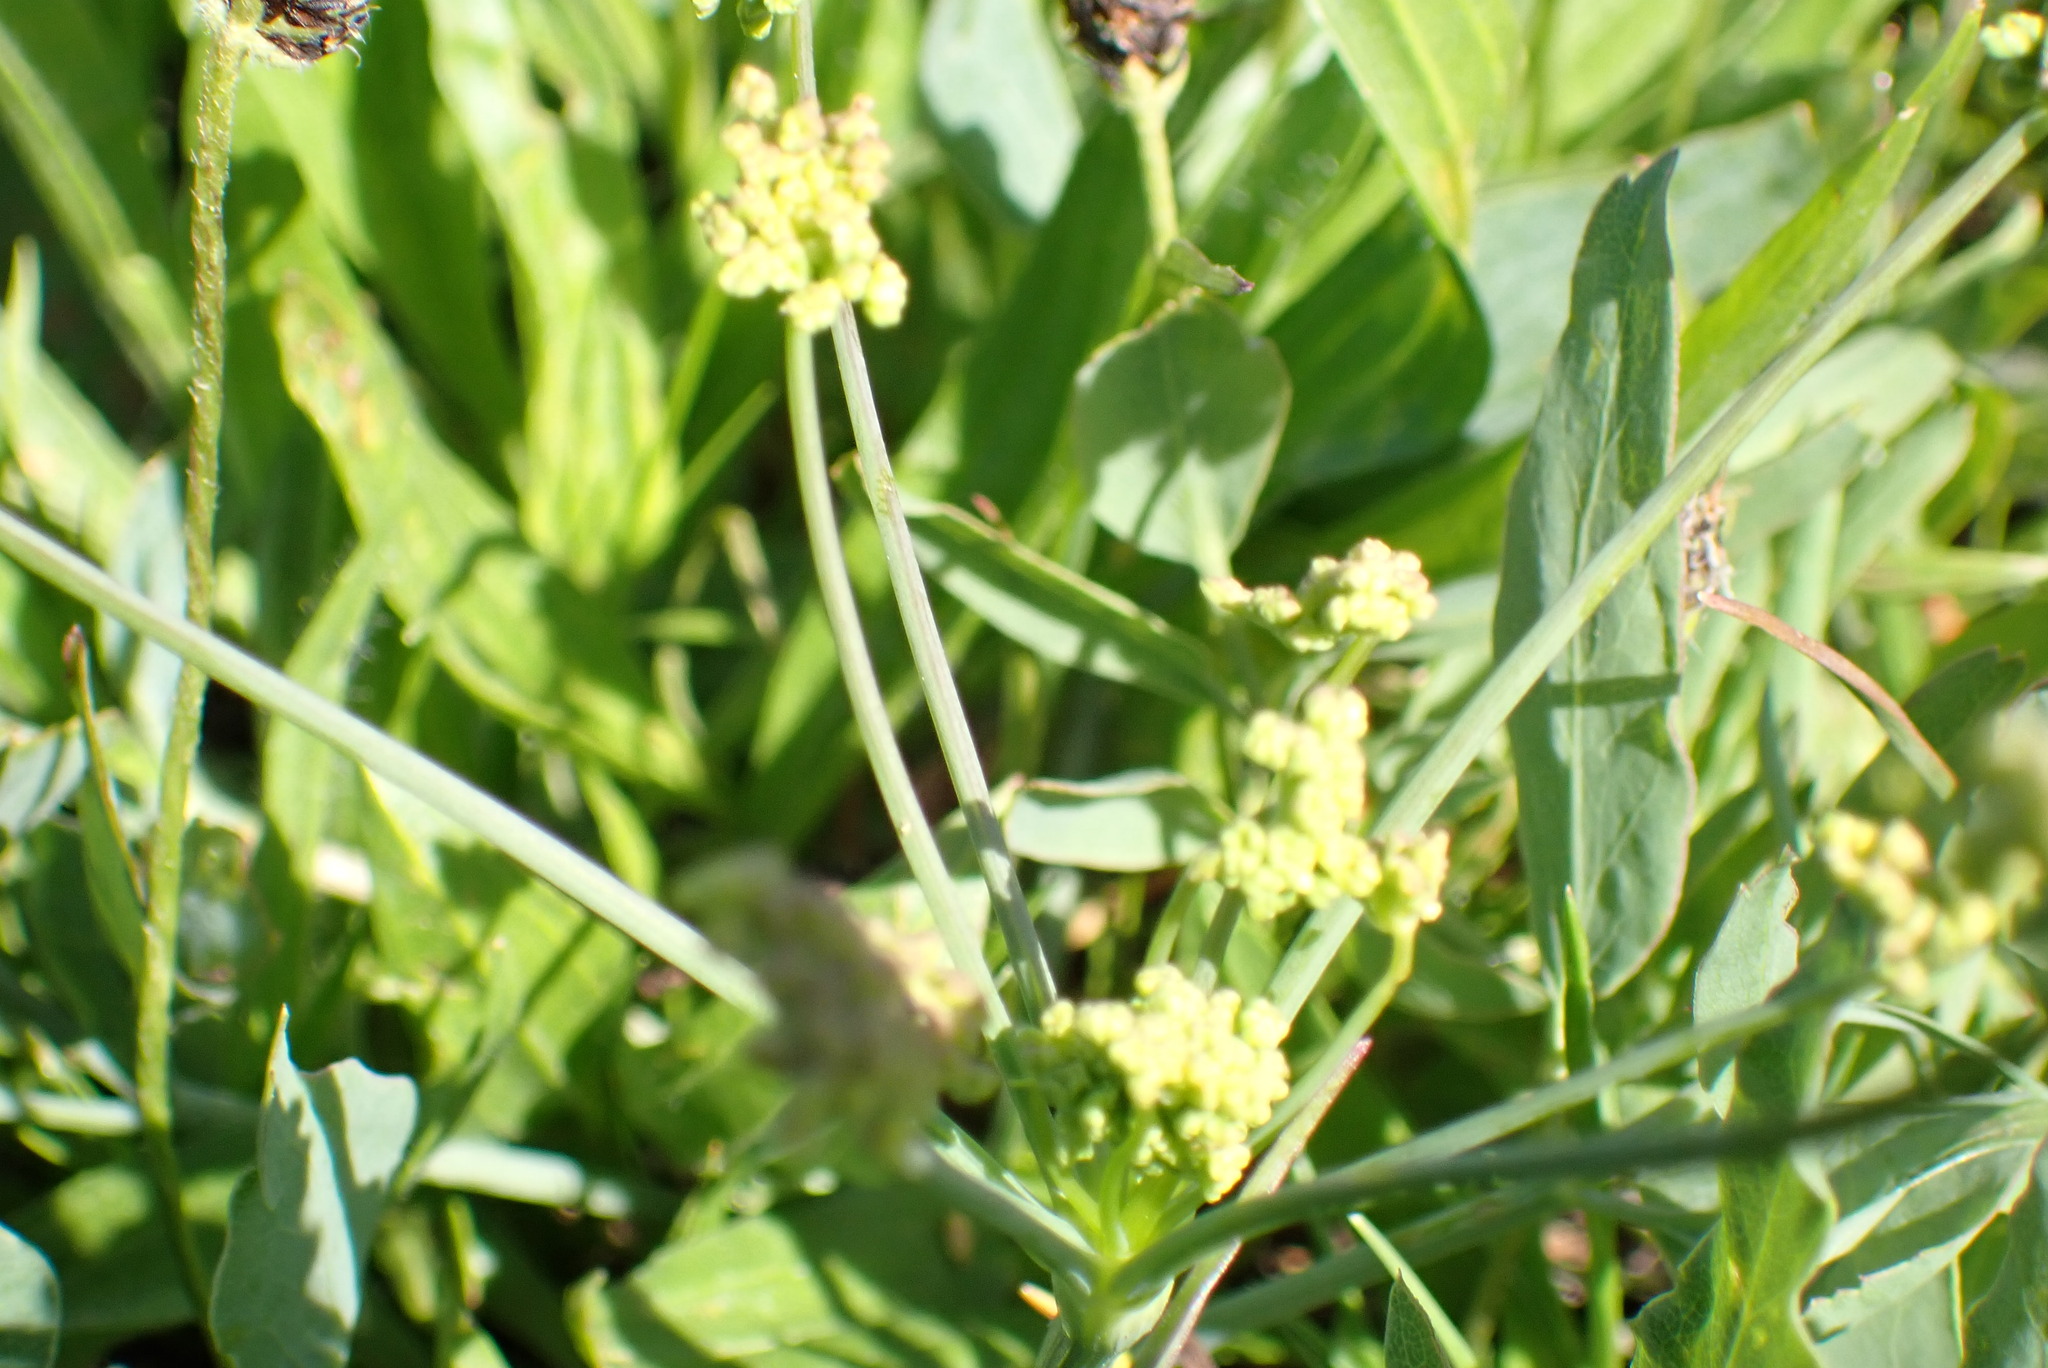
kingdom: Plantae
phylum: Tracheophyta
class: Magnoliopsida
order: Apiales
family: Apiaceae
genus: Lomatium
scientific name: Lomatium nudicaule
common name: Pestle lomatium
